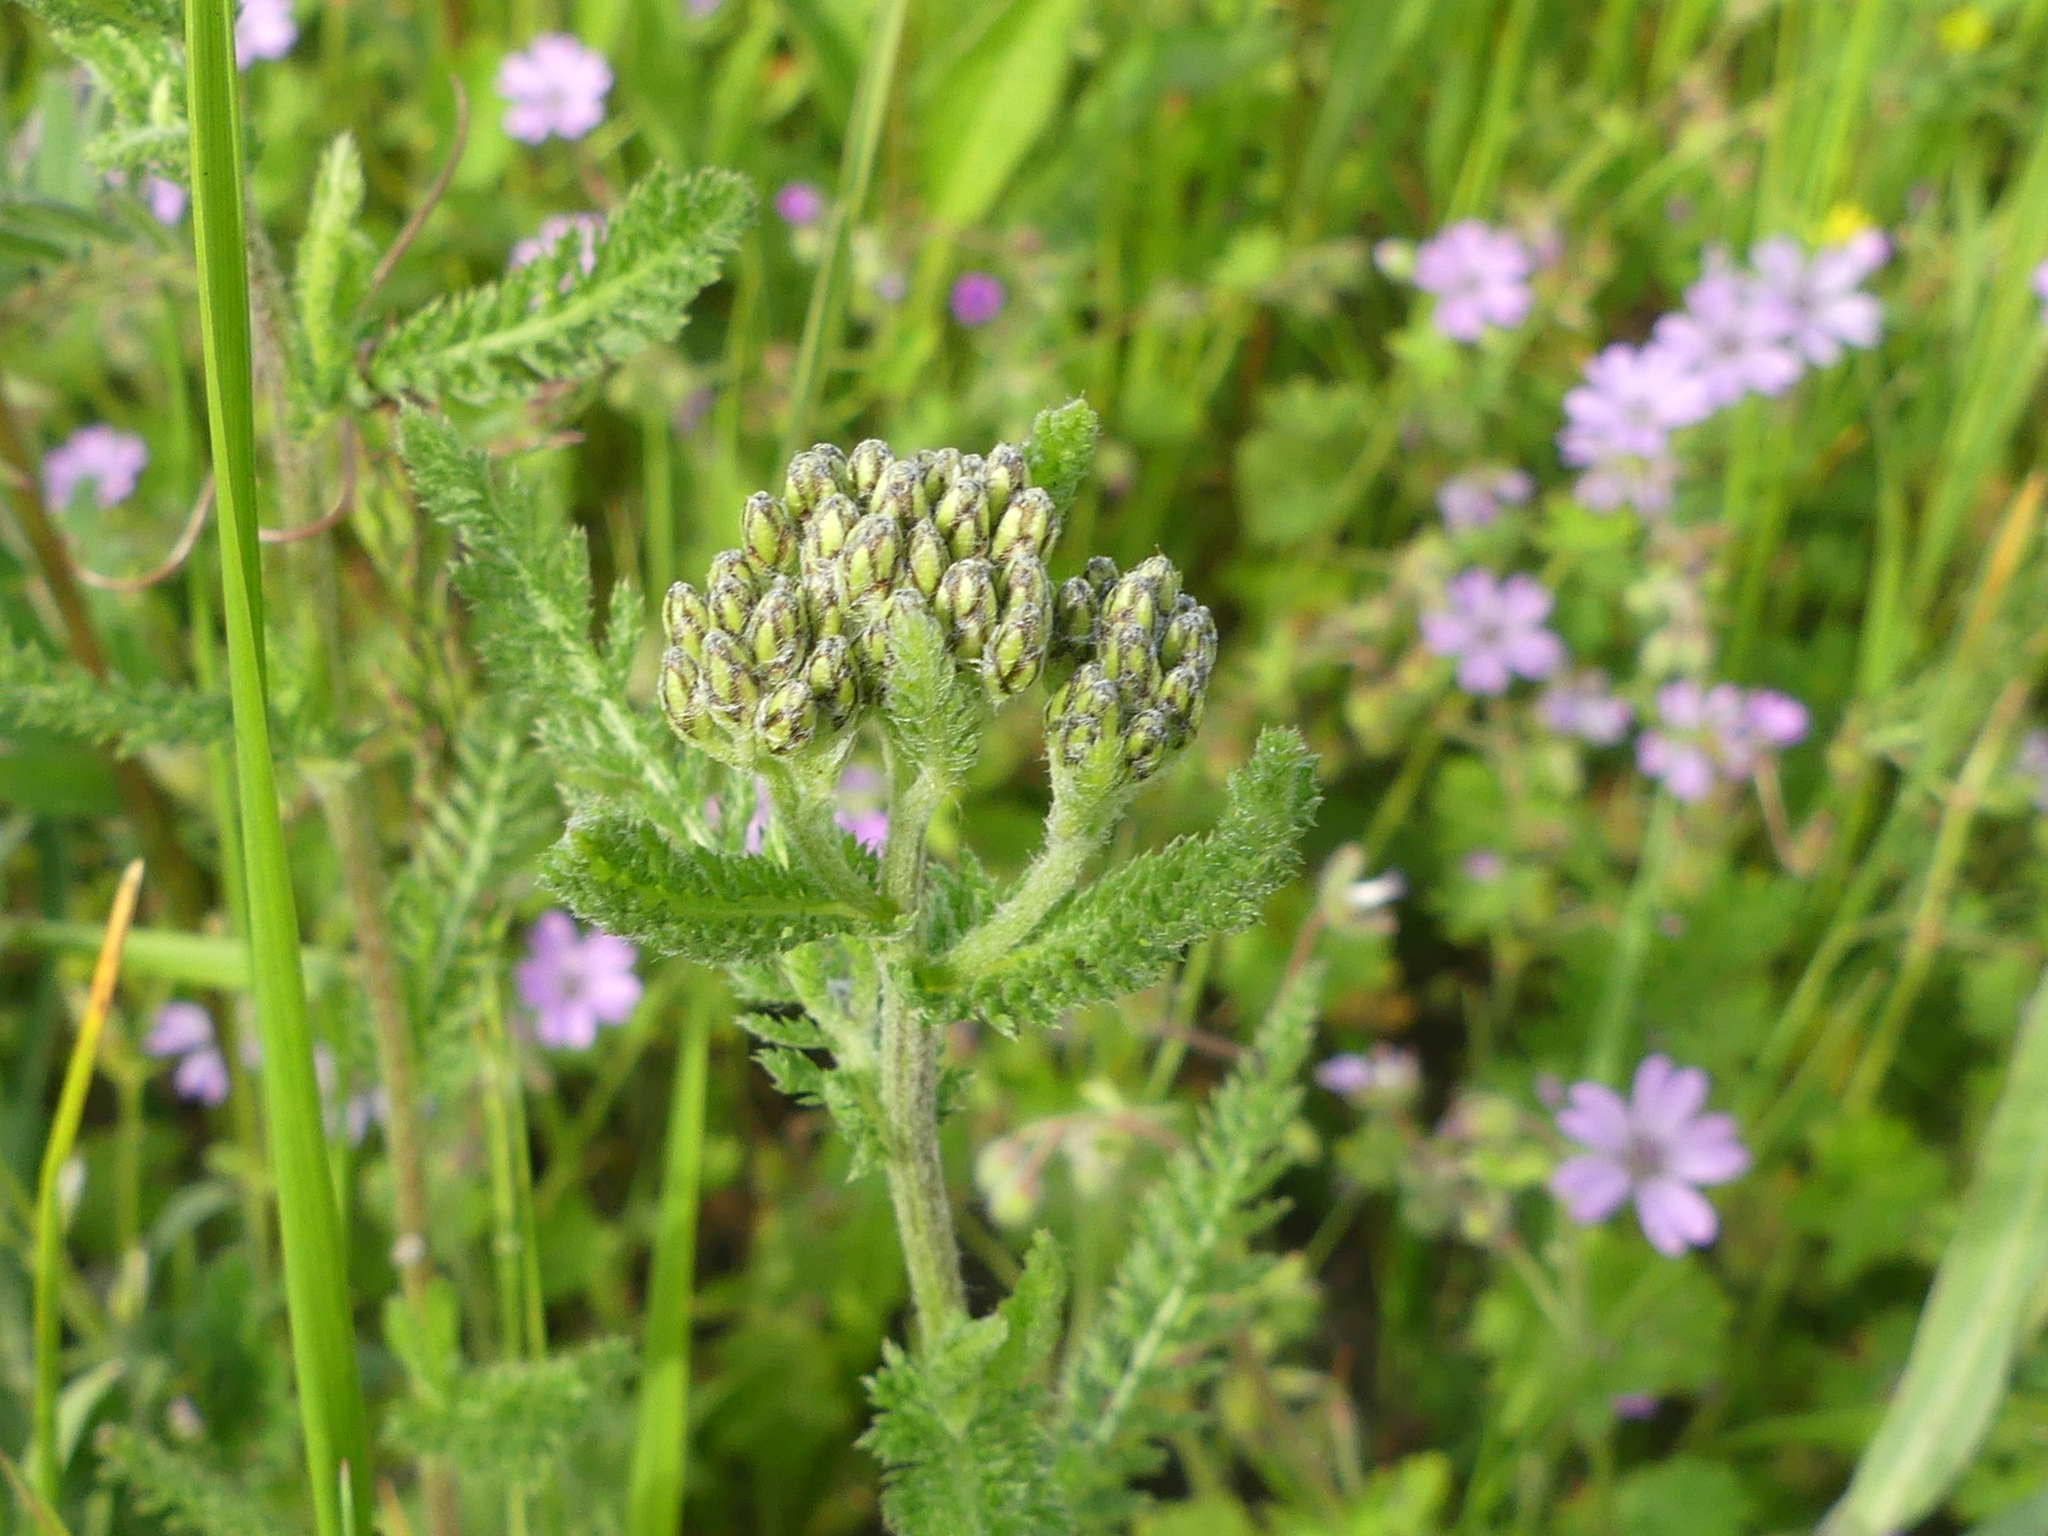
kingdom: Plantae
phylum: Tracheophyta
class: Magnoliopsida
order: Asterales
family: Asteraceae
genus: Achillea
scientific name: Achillea millefolium
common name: Yarrow
